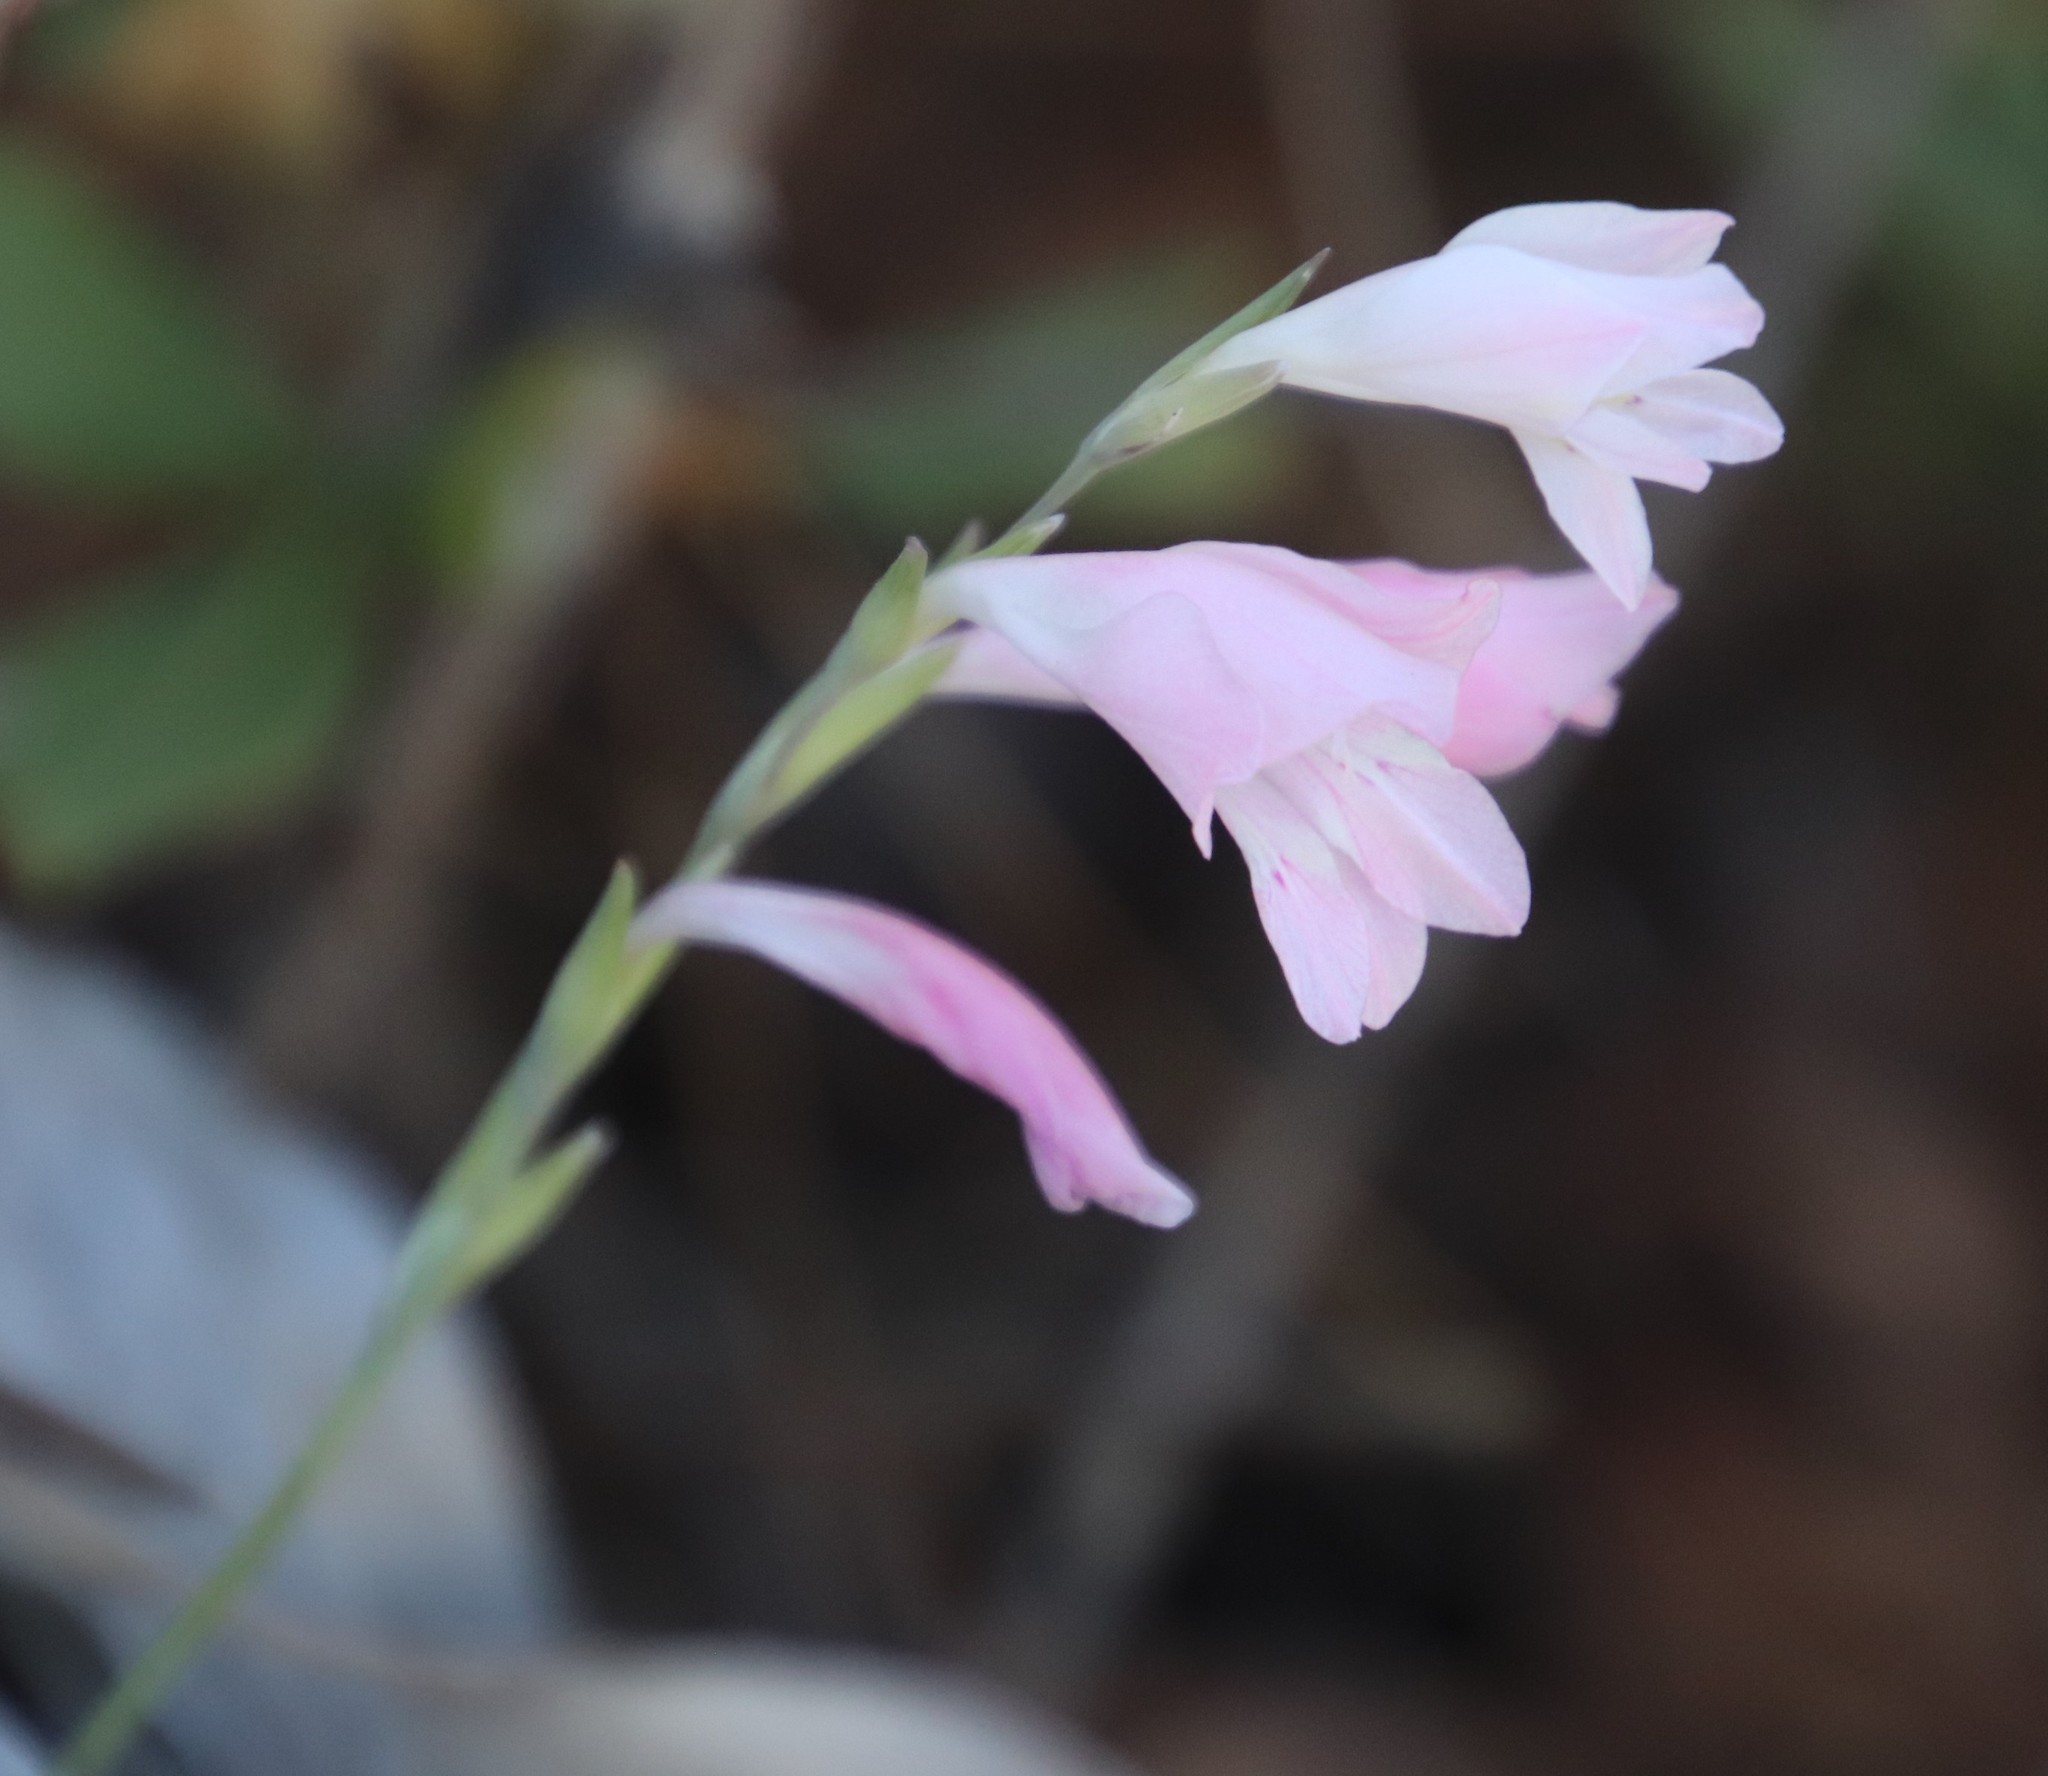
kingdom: Plantae
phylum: Tracheophyta
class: Liliopsida
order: Asparagales
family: Iridaceae
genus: Gladiolus
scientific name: Gladiolus brevifolius
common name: March pypie
